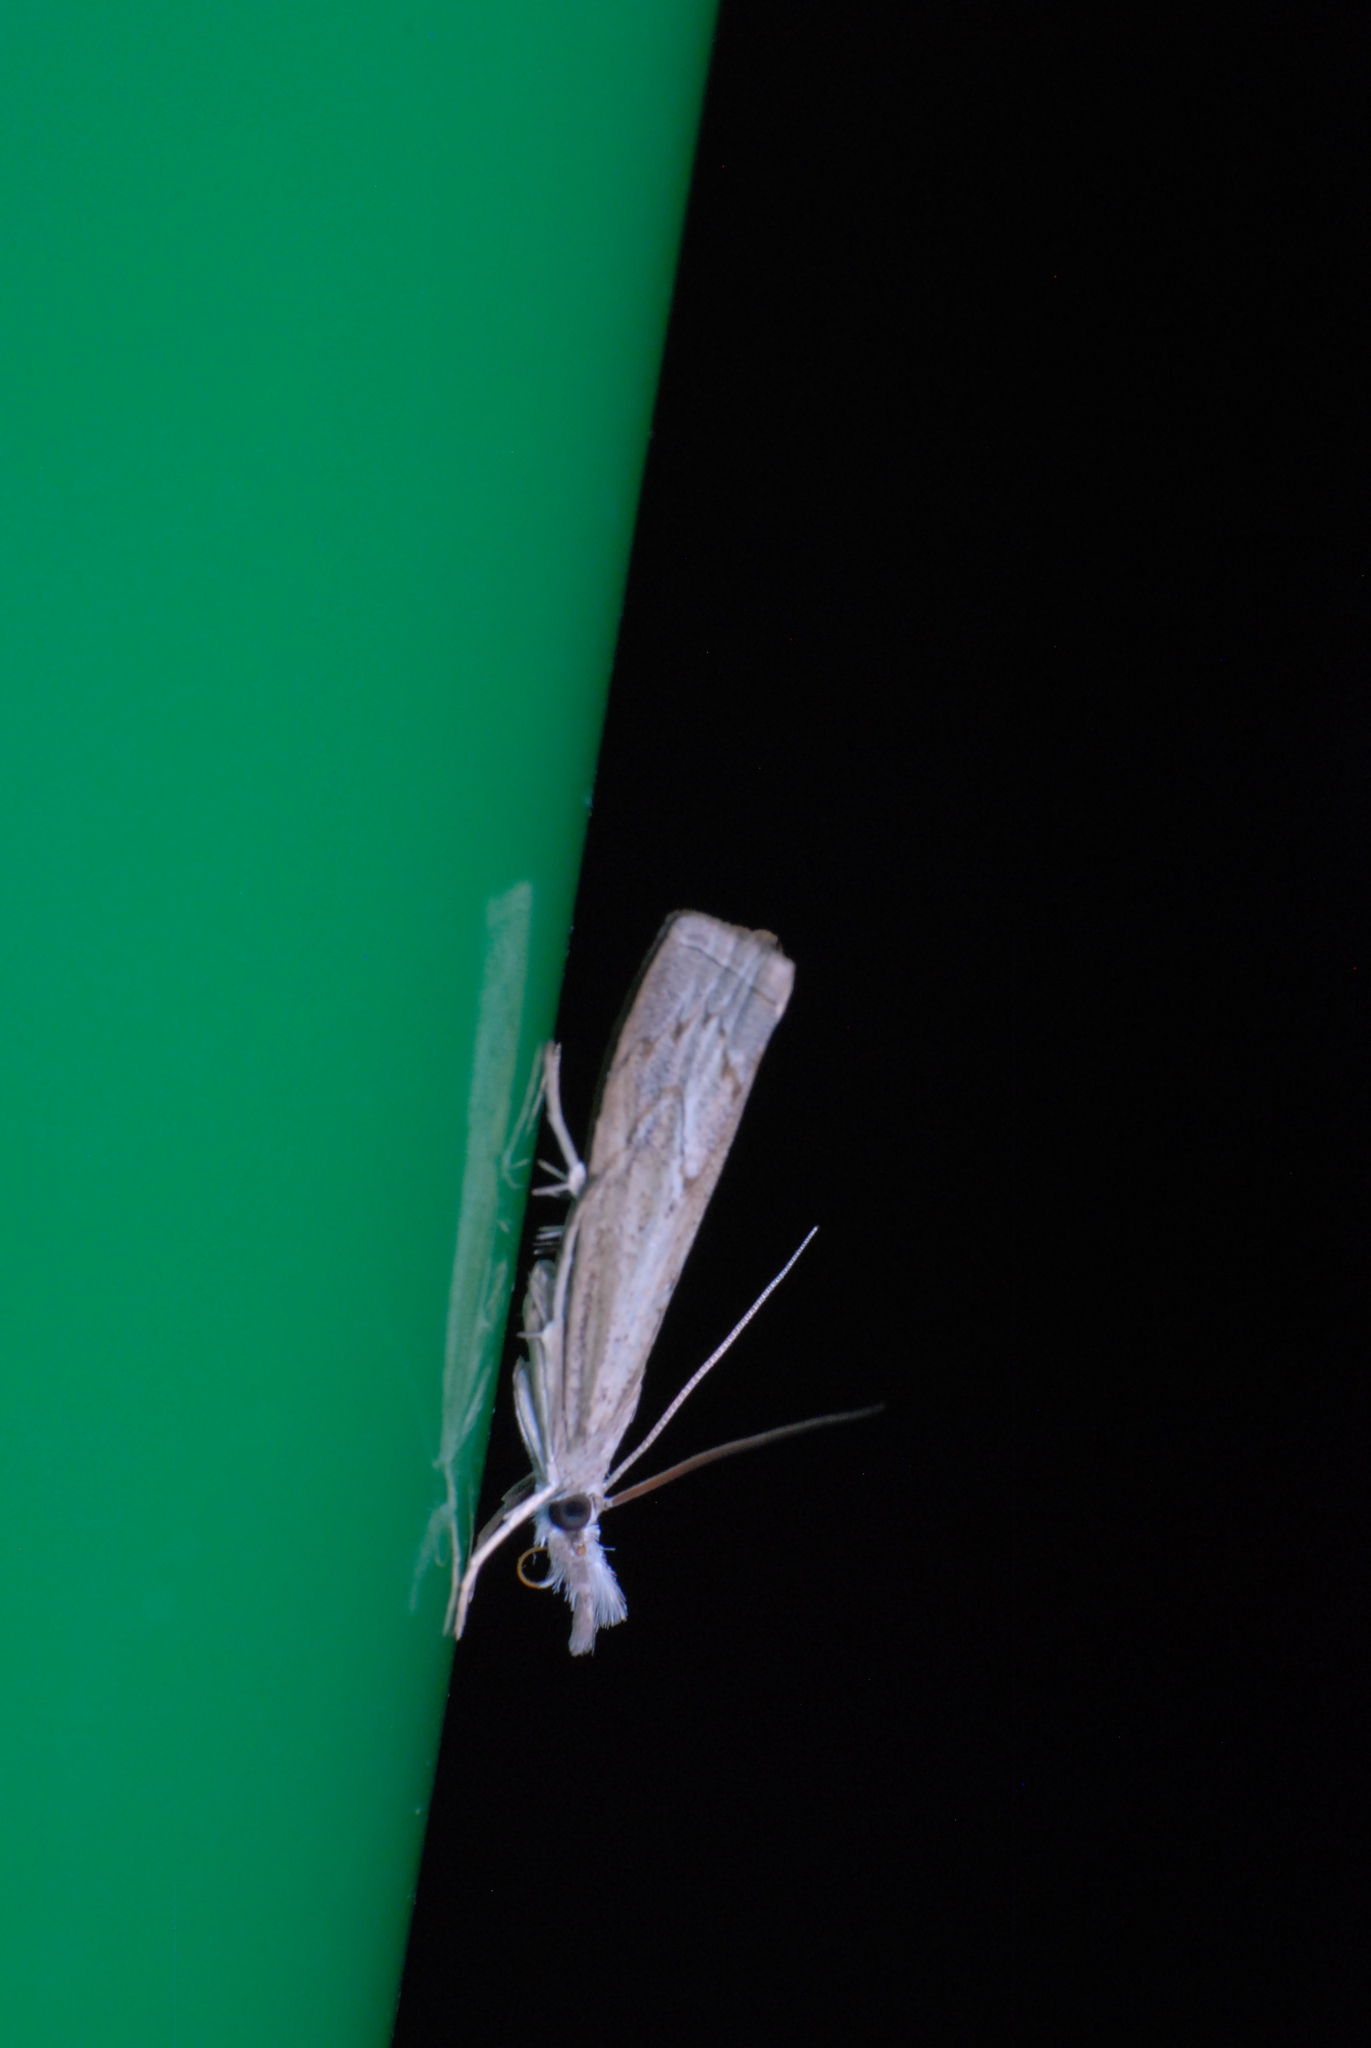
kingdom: Animalia
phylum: Arthropoda
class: Insecta
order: Lepidoptera
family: Crambidae
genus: Culladia
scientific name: Culladia cuneiferellus
